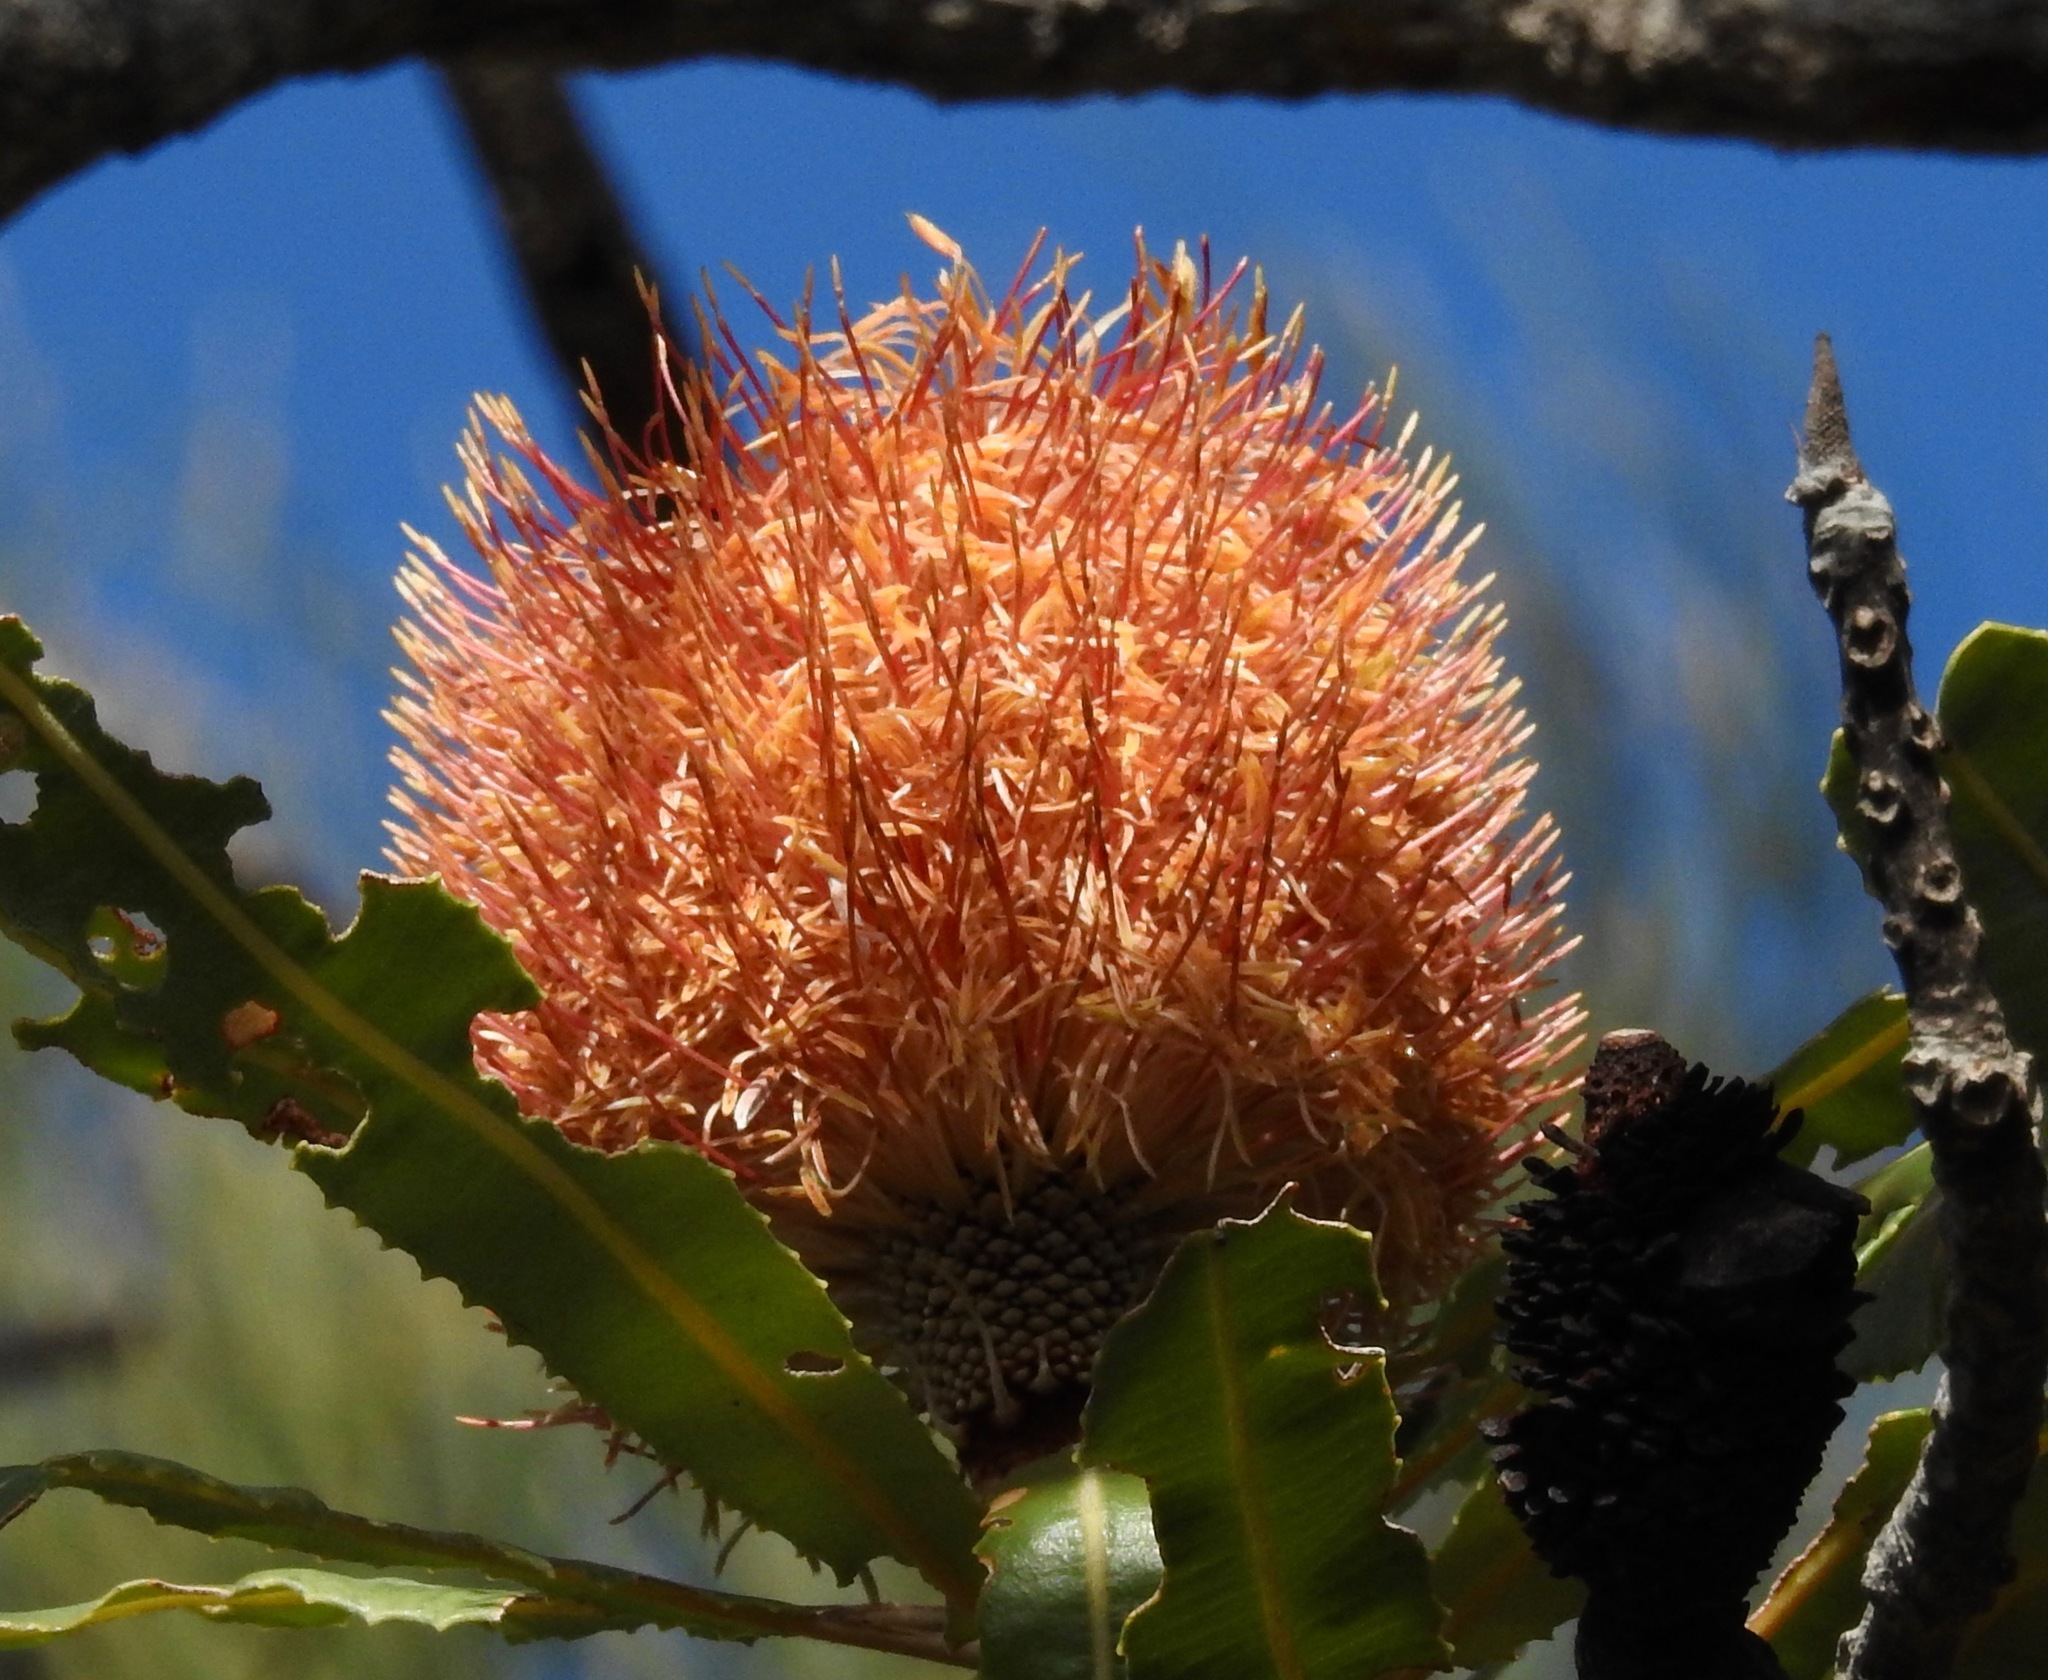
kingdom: Plantae
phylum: Tracheophyta
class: Magnoliopsida
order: Proteales
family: Proteaceae
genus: Banksia
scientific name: Banksia menziesii
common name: Menzie's banksia
